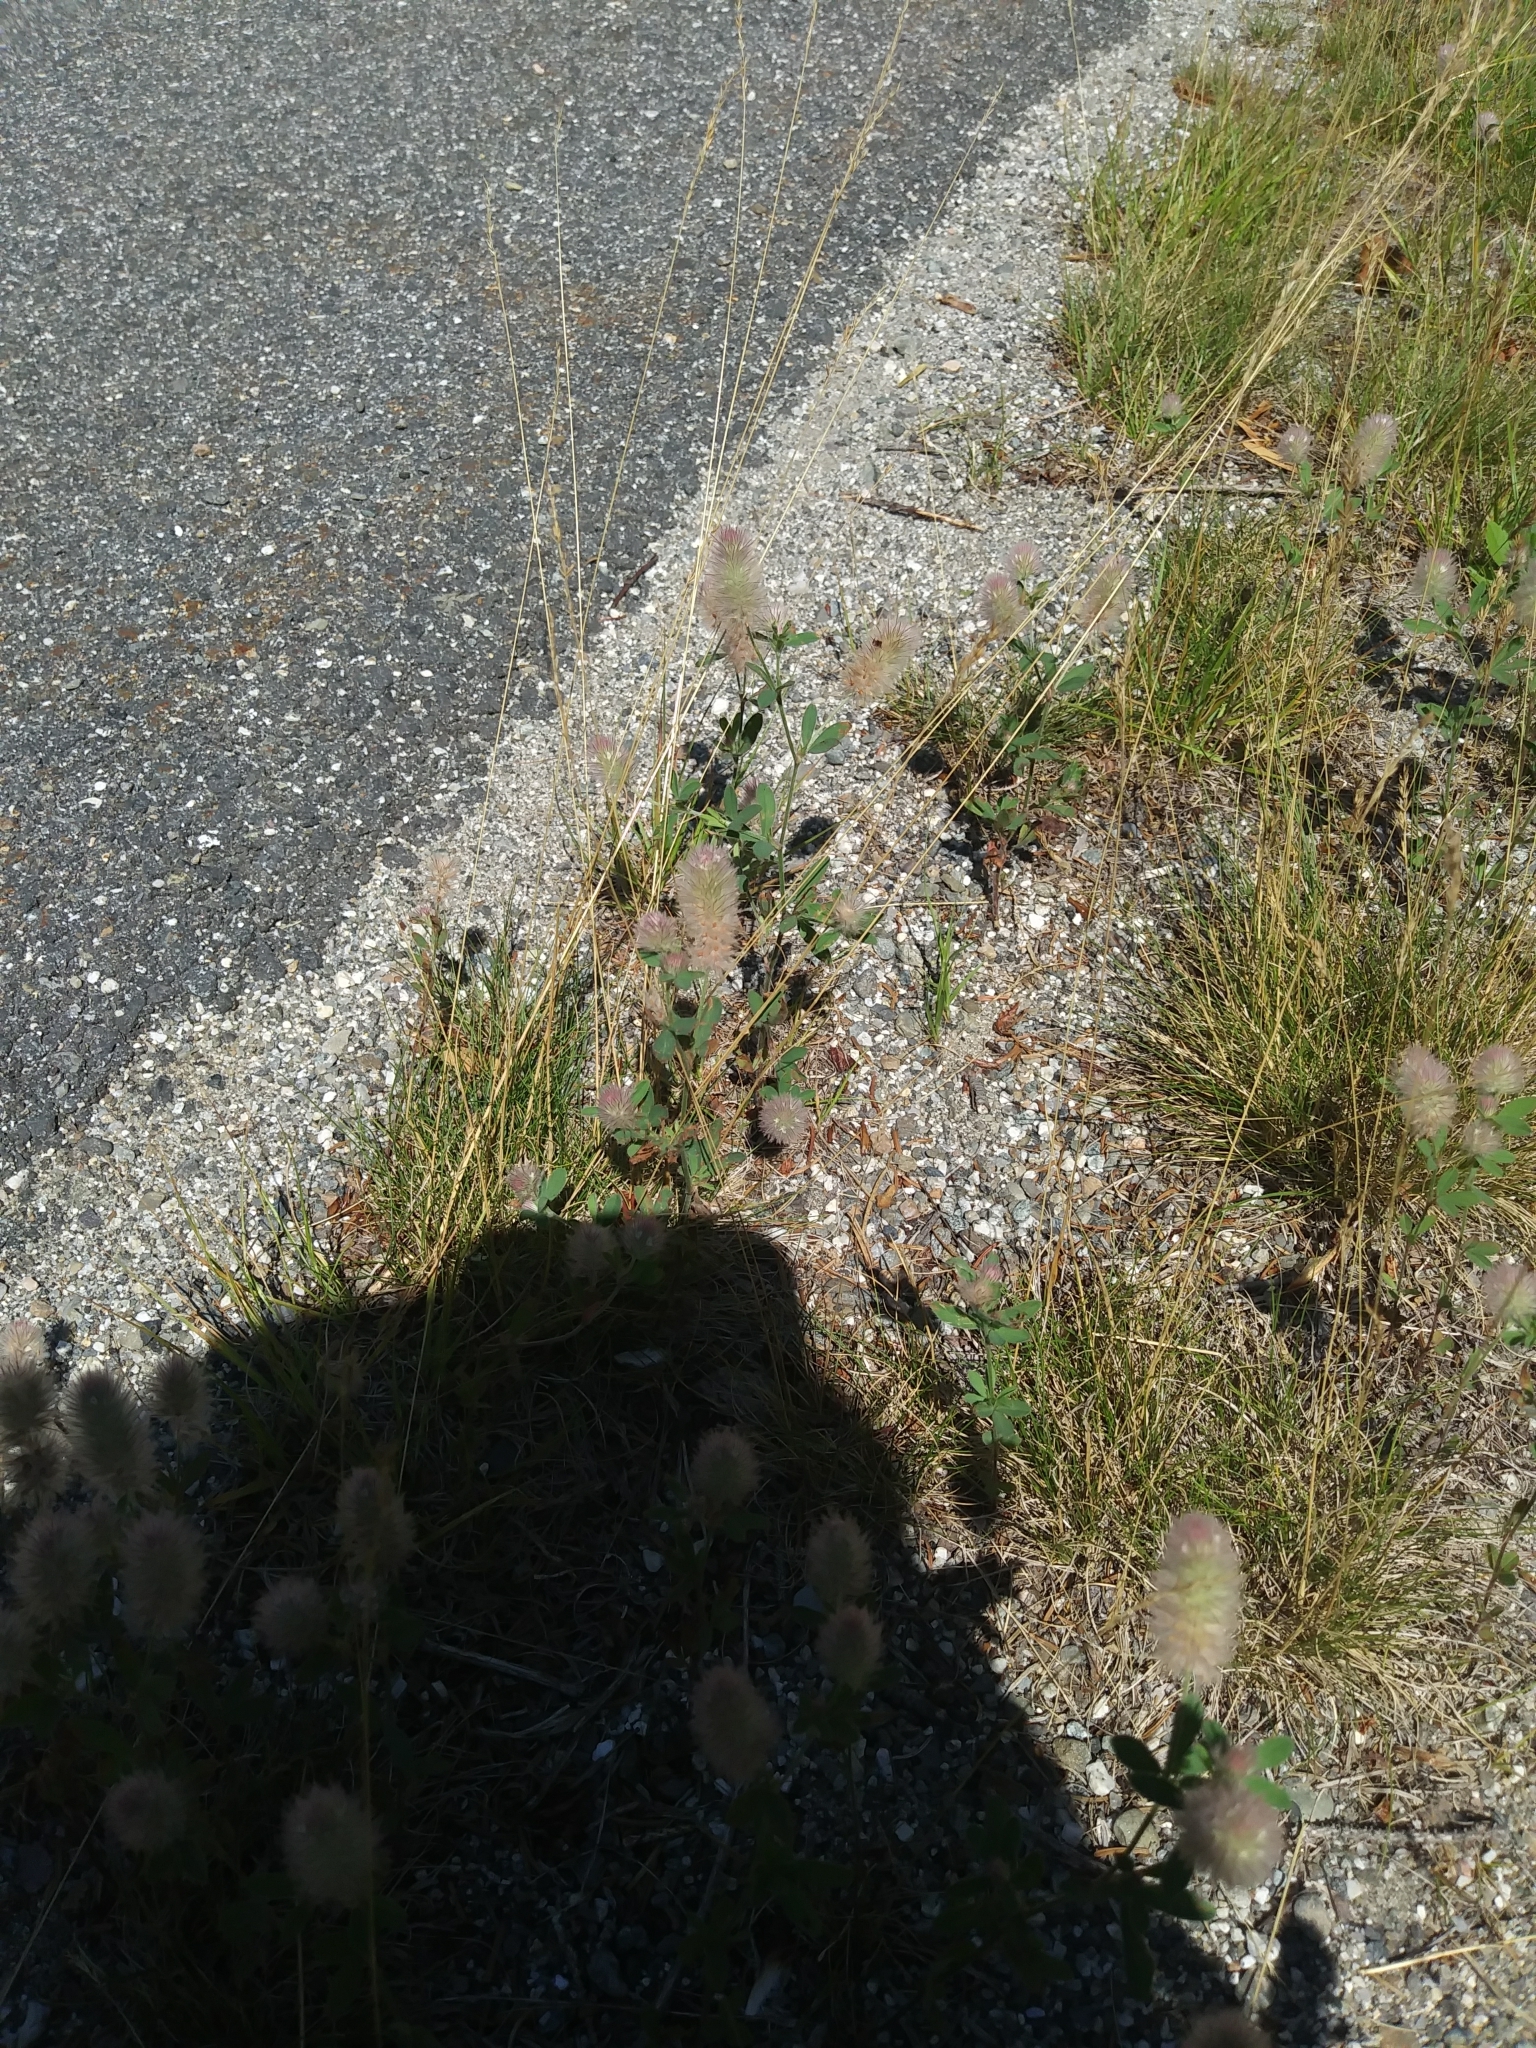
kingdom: Plantae
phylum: Tracheophyta
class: Magnoliopsida
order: Fabales
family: Fabaceae
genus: Trifolium
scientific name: Trifolium arvense
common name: Hare's-foot clover
